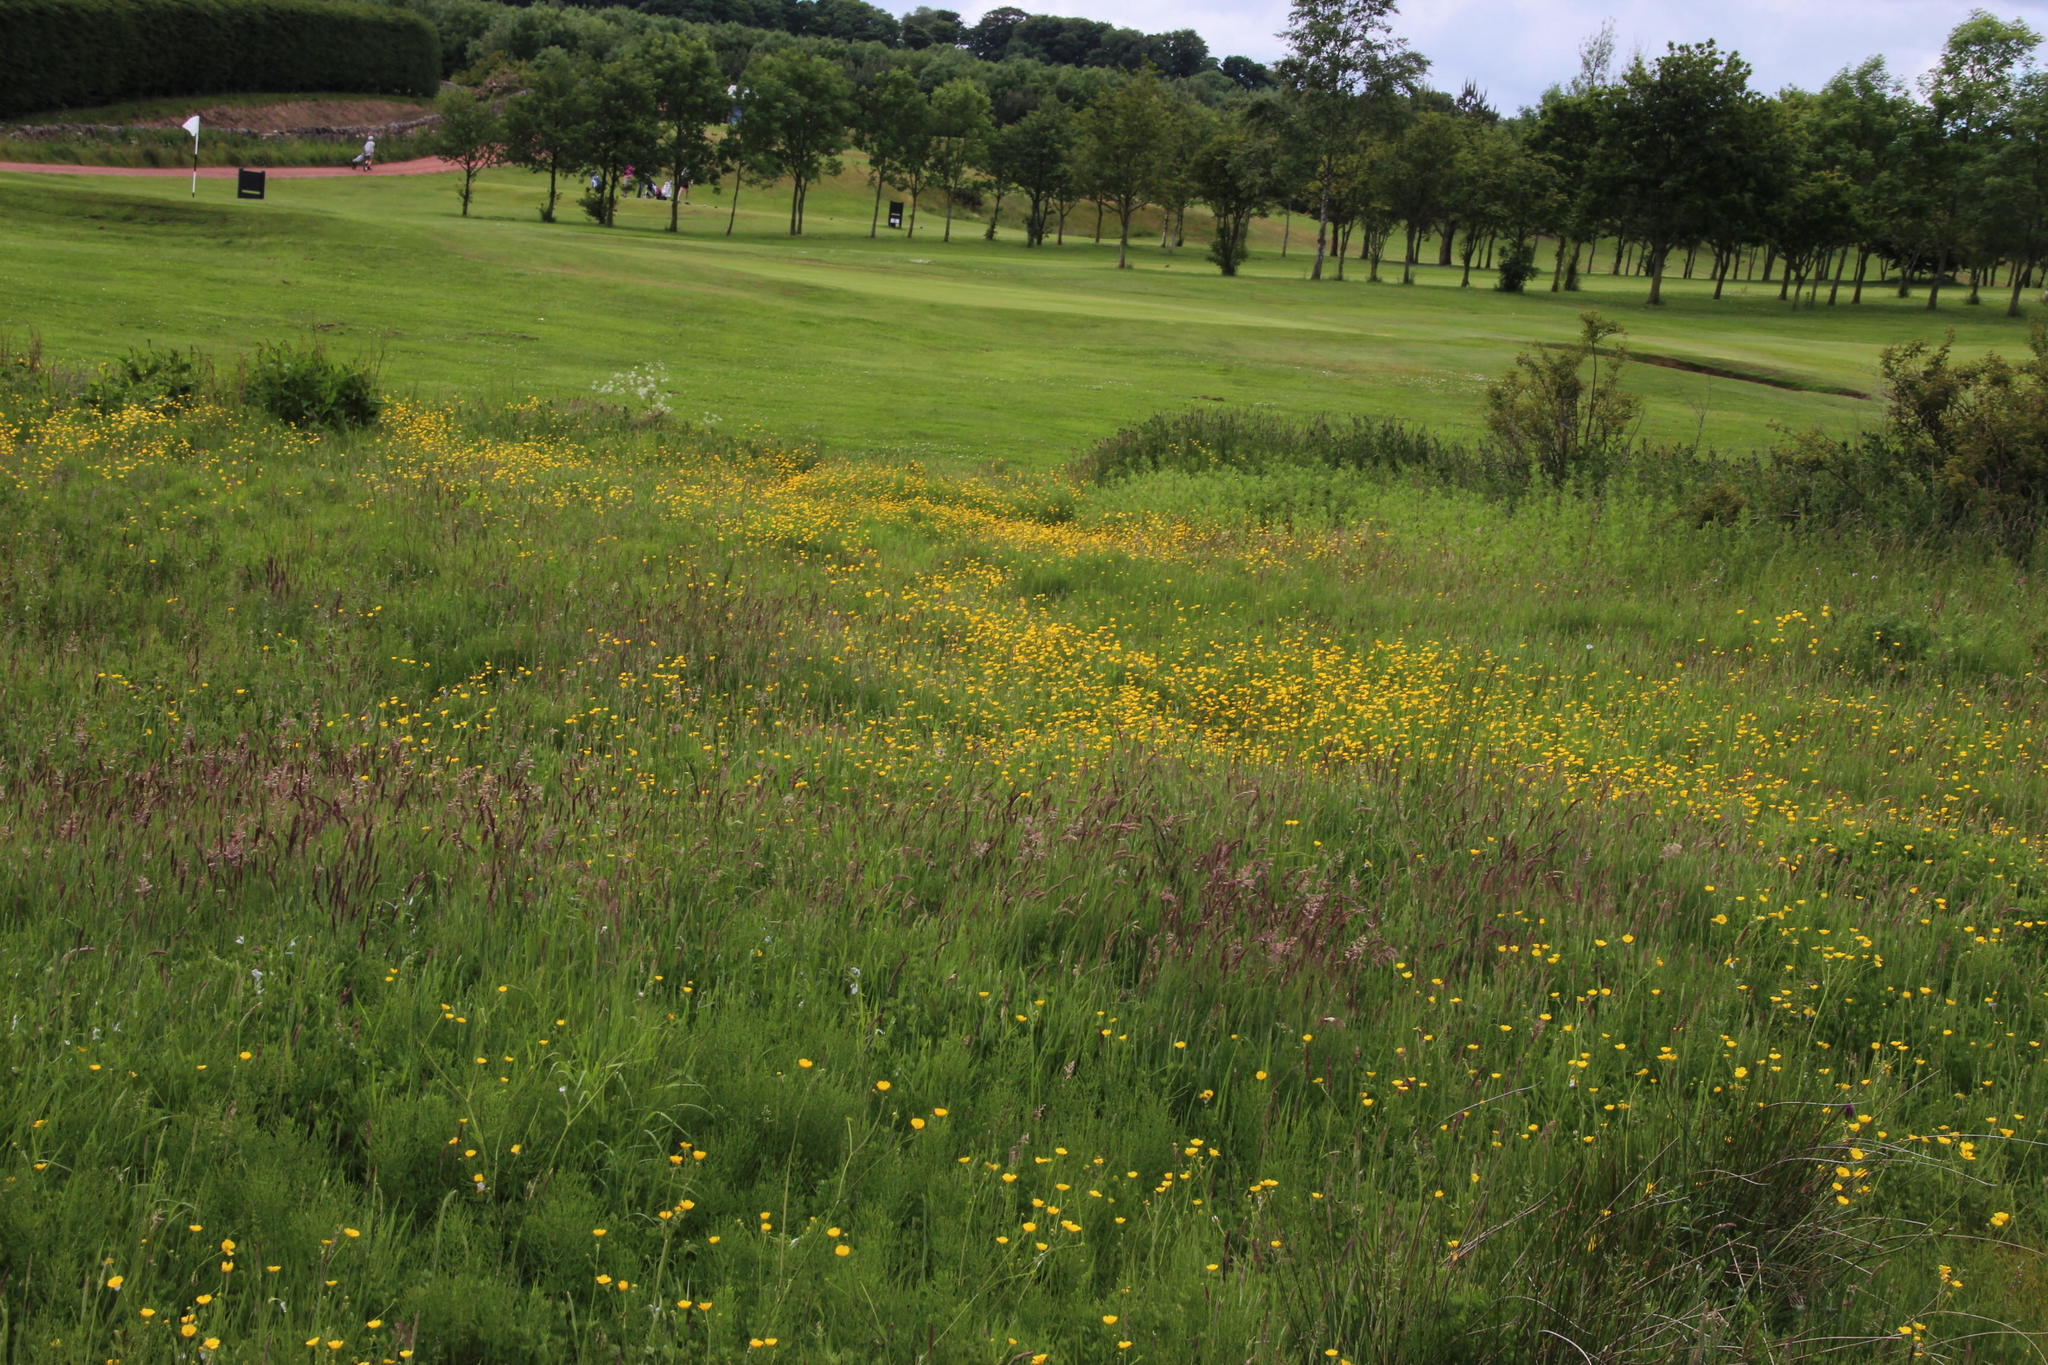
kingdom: Plantae
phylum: Tracheophyta
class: Magnoliopsida
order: Ranunculales
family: Ranunculaceae
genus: Ranunculus
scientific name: Ranunculus acris
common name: Meadow buttercup
